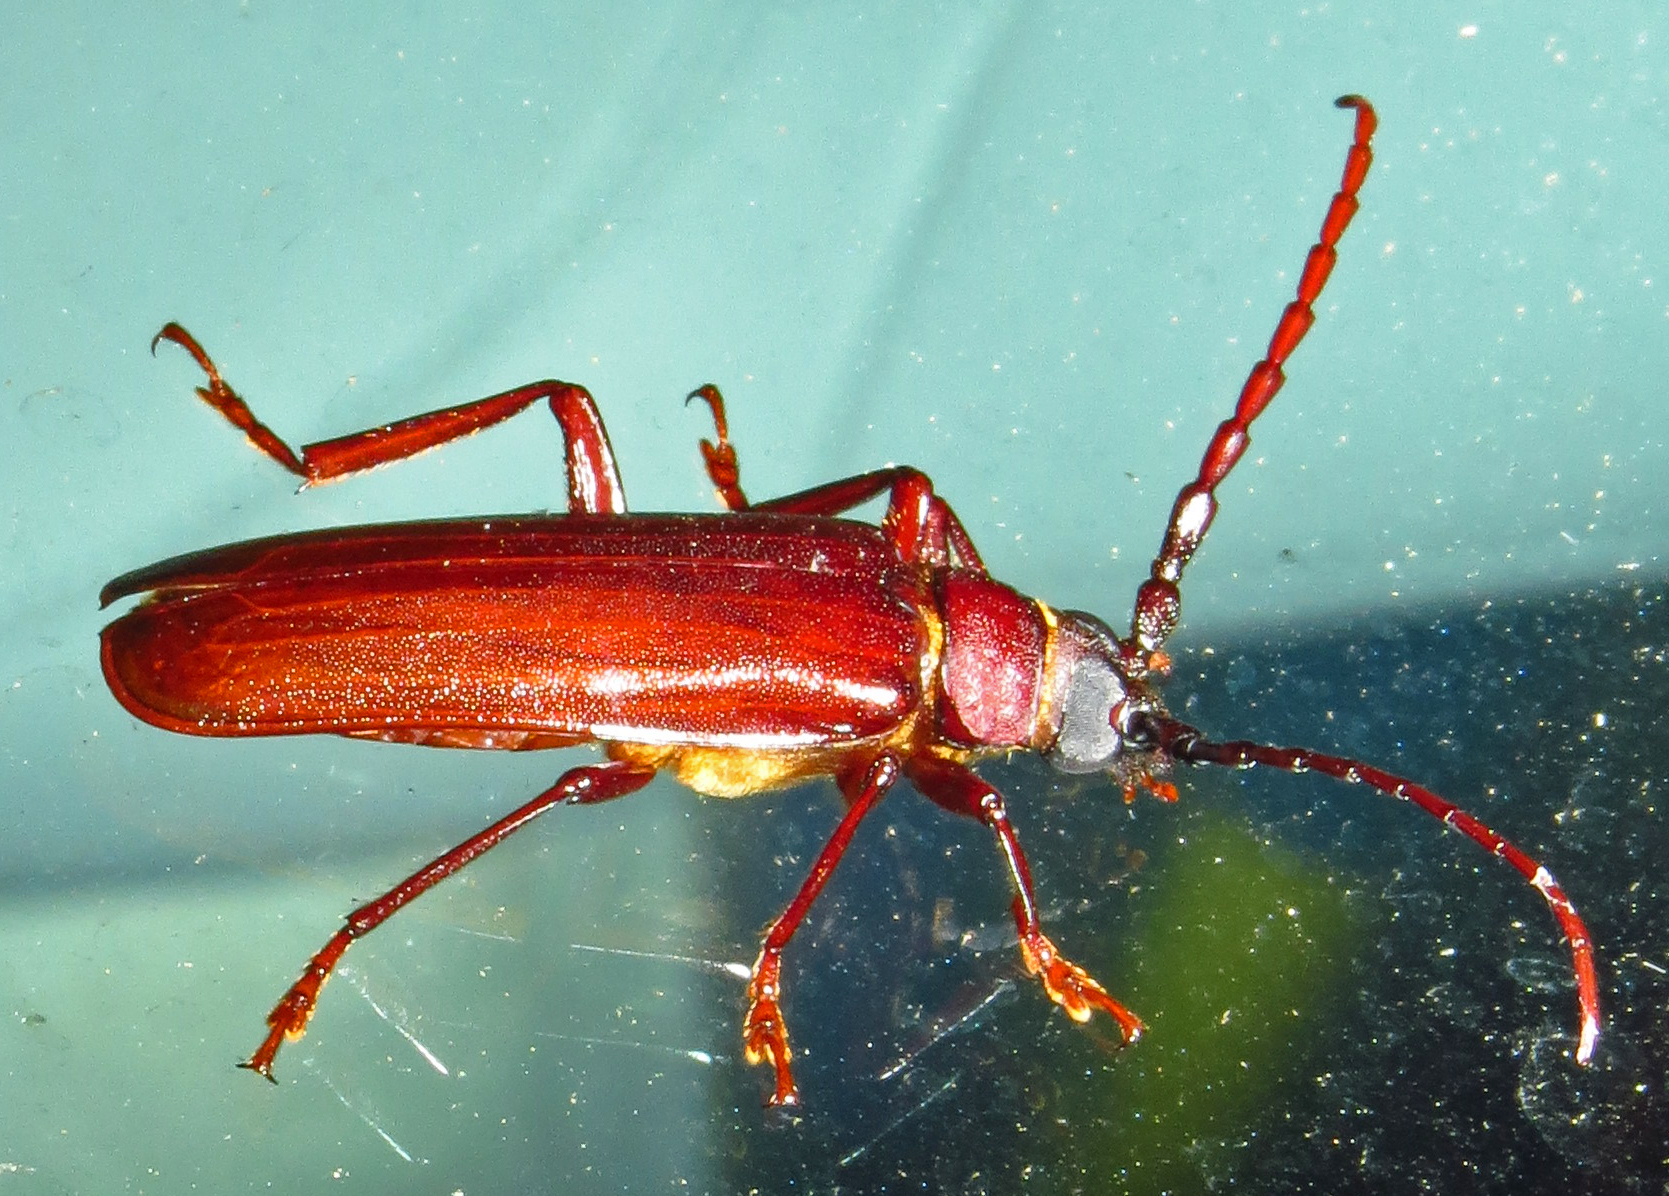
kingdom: Animalia
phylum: Arthropoda
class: Insecta
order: Coleoptera
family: Cerambycidae
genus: Orthosoma
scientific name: Orthosoma brunneum
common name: Brown prionid beetle
